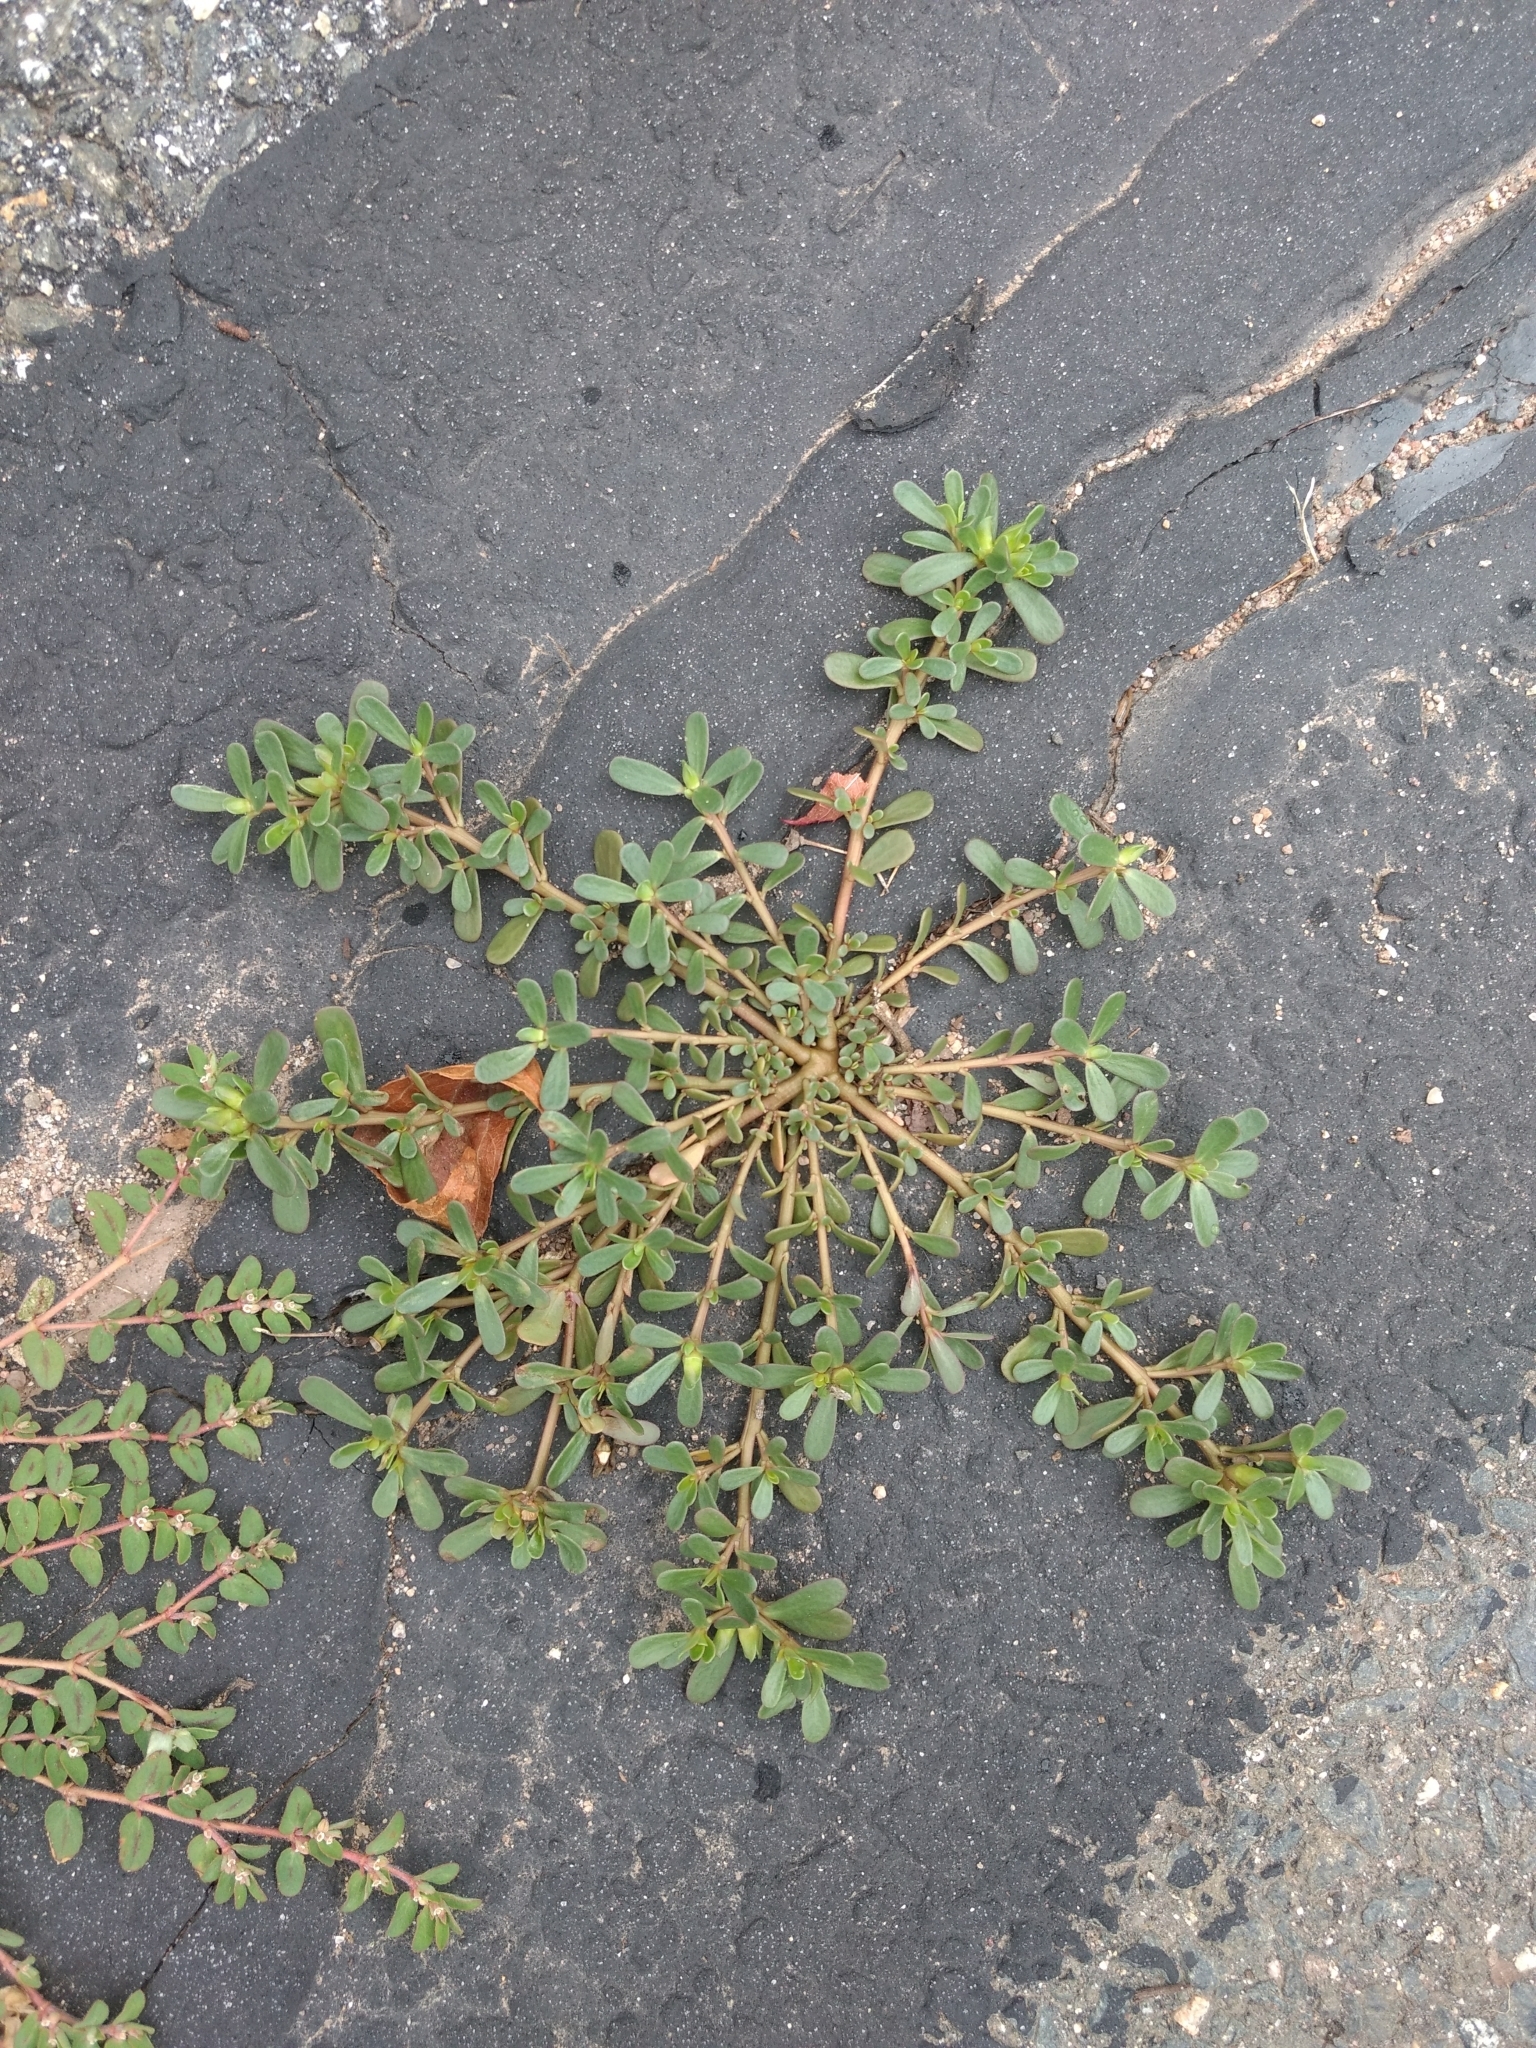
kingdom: Plantae
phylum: Tracheophyta
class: Magnoliopsida
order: Caryophyllales
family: Portulacaceae
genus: Portulaca
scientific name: Portulaca oleracea
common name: Common purslane
